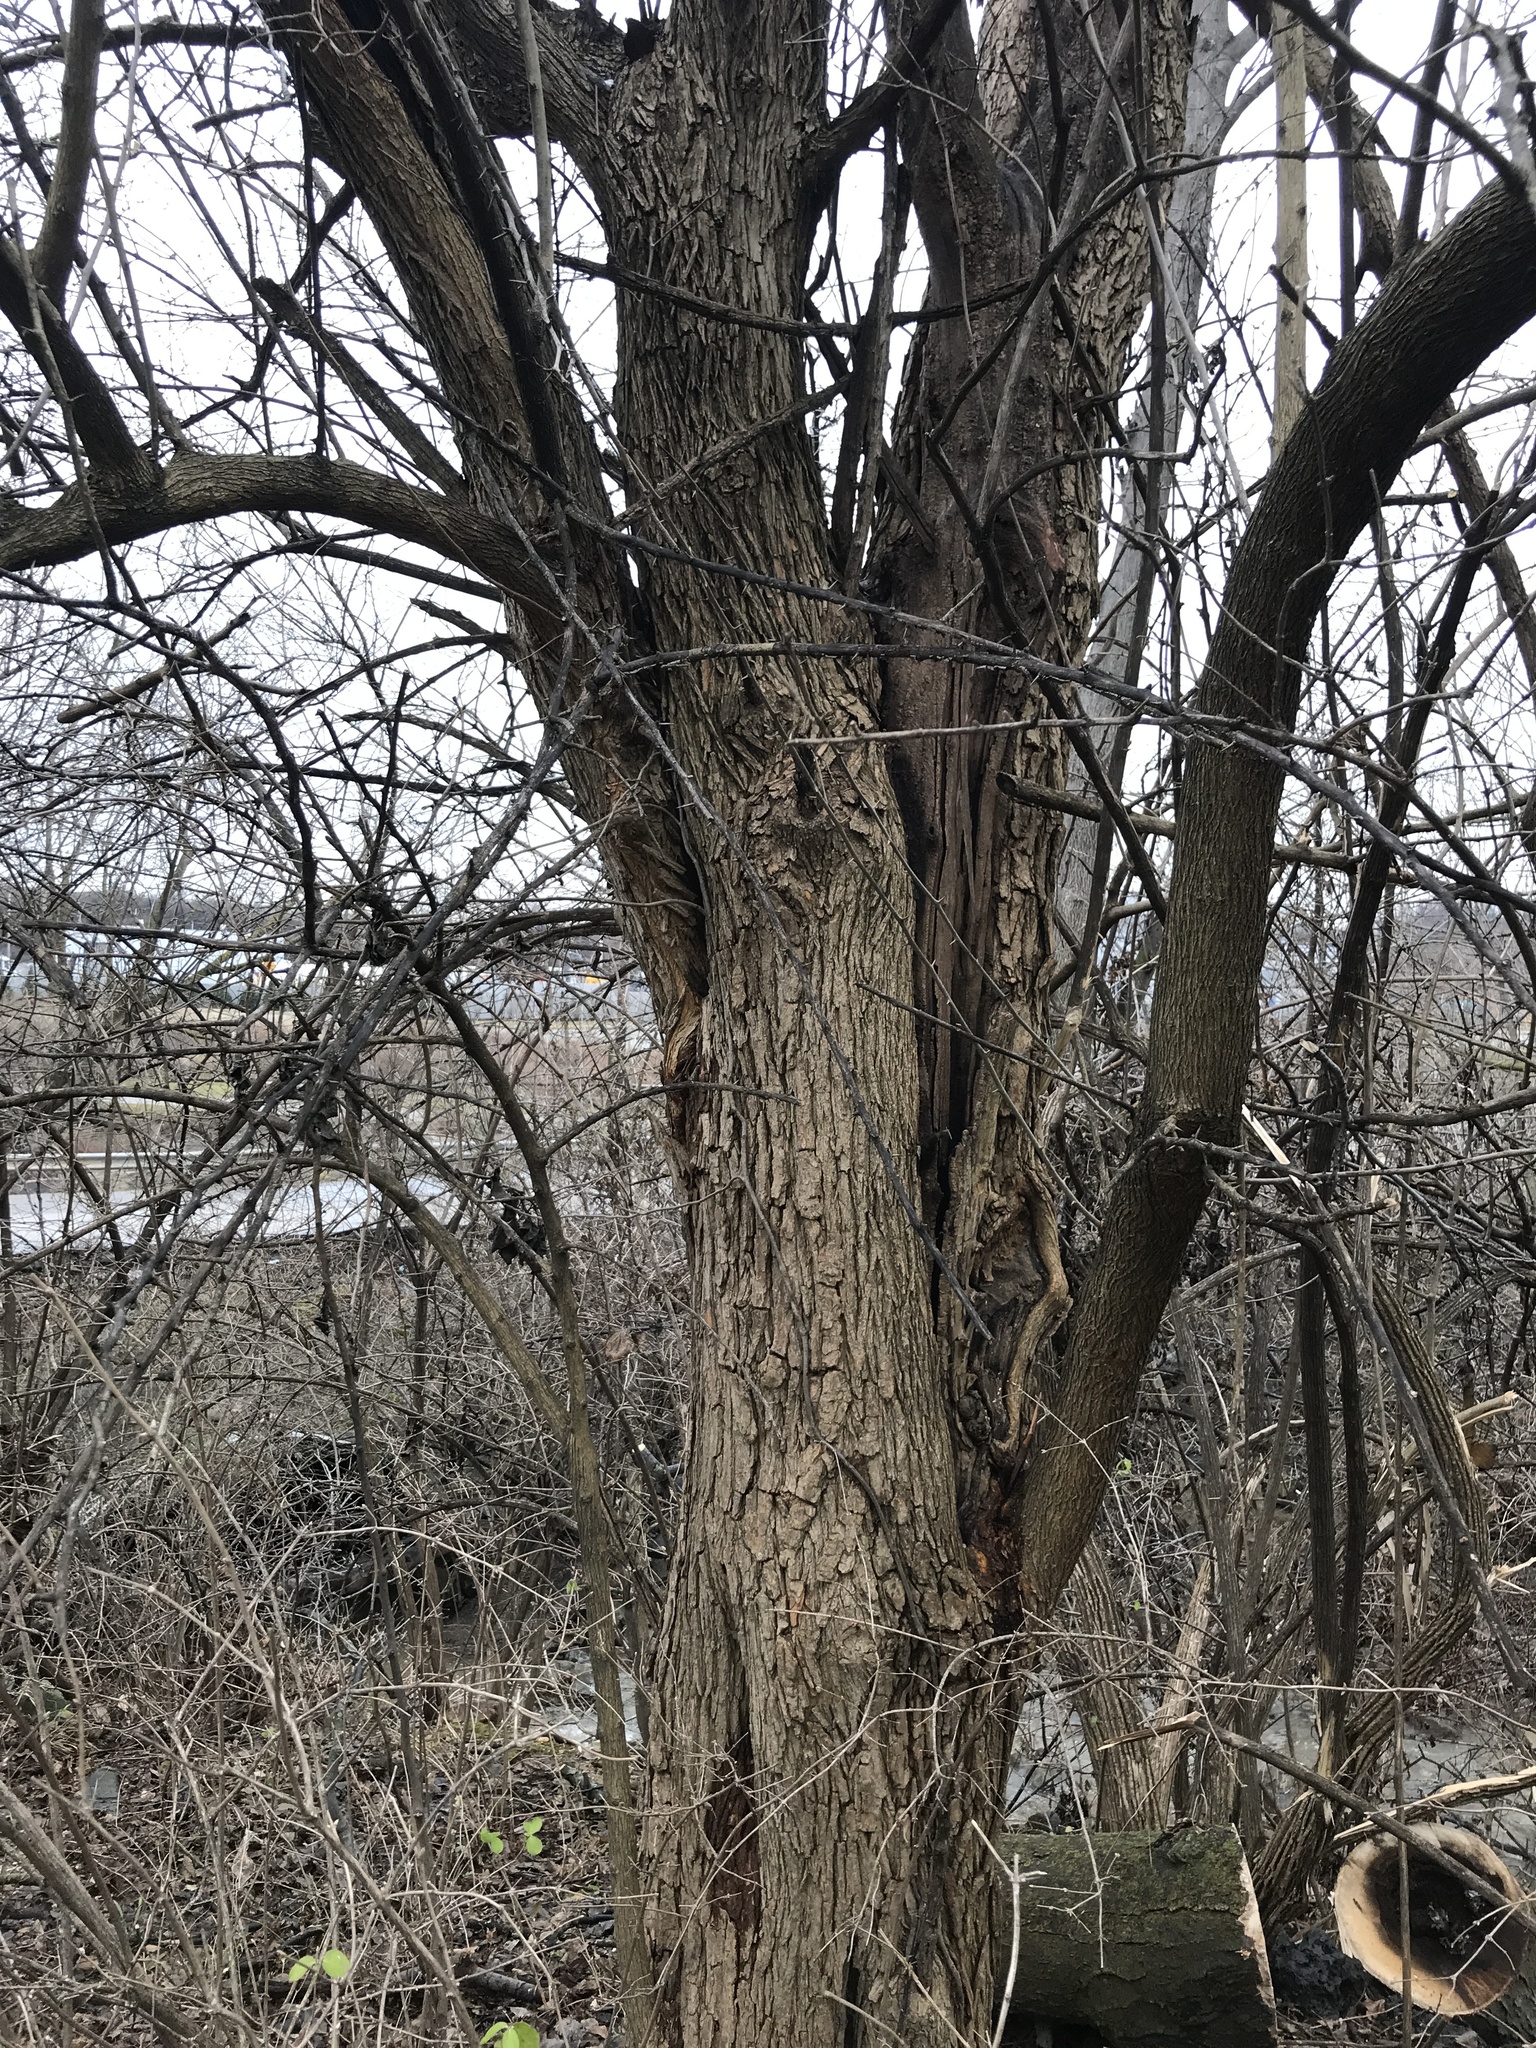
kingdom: Plantae
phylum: Tracheophyta
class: Magnoliopsida
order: Rosales
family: Moraceae
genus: Maclura
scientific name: Maclura pomifera
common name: Osage-orange
